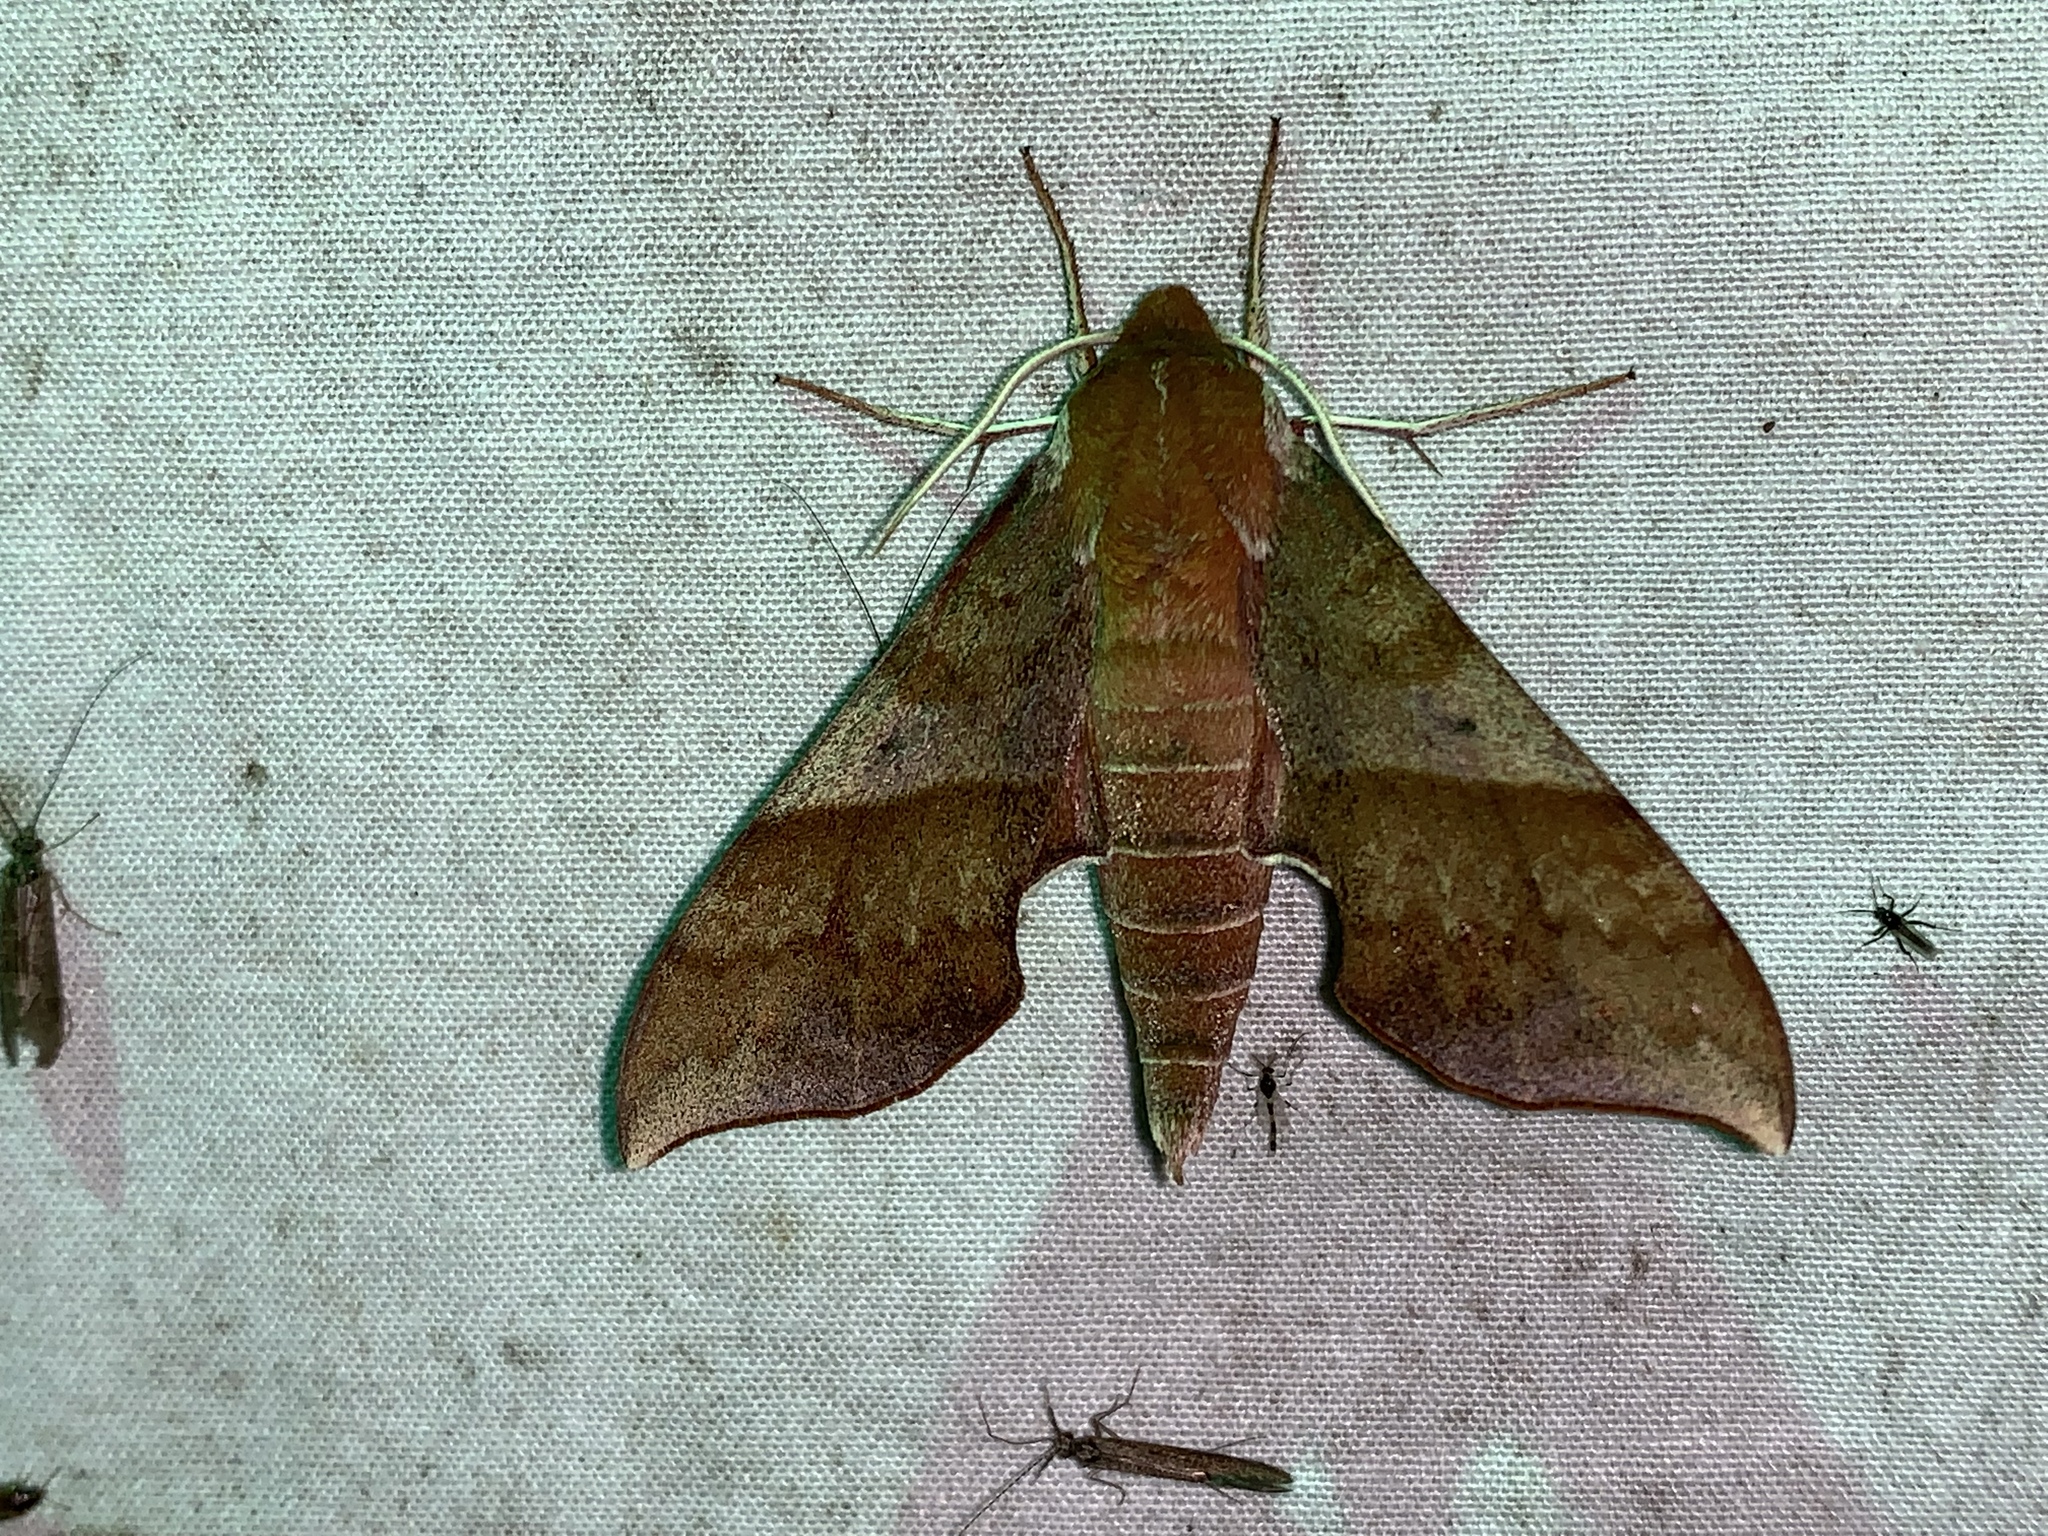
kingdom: Animalia
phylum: Arthropoda
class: Insecta
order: Lepidoptera
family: Sphingidae
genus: Darapsa
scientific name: Darapsa choerilus
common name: Azalea sphinx
